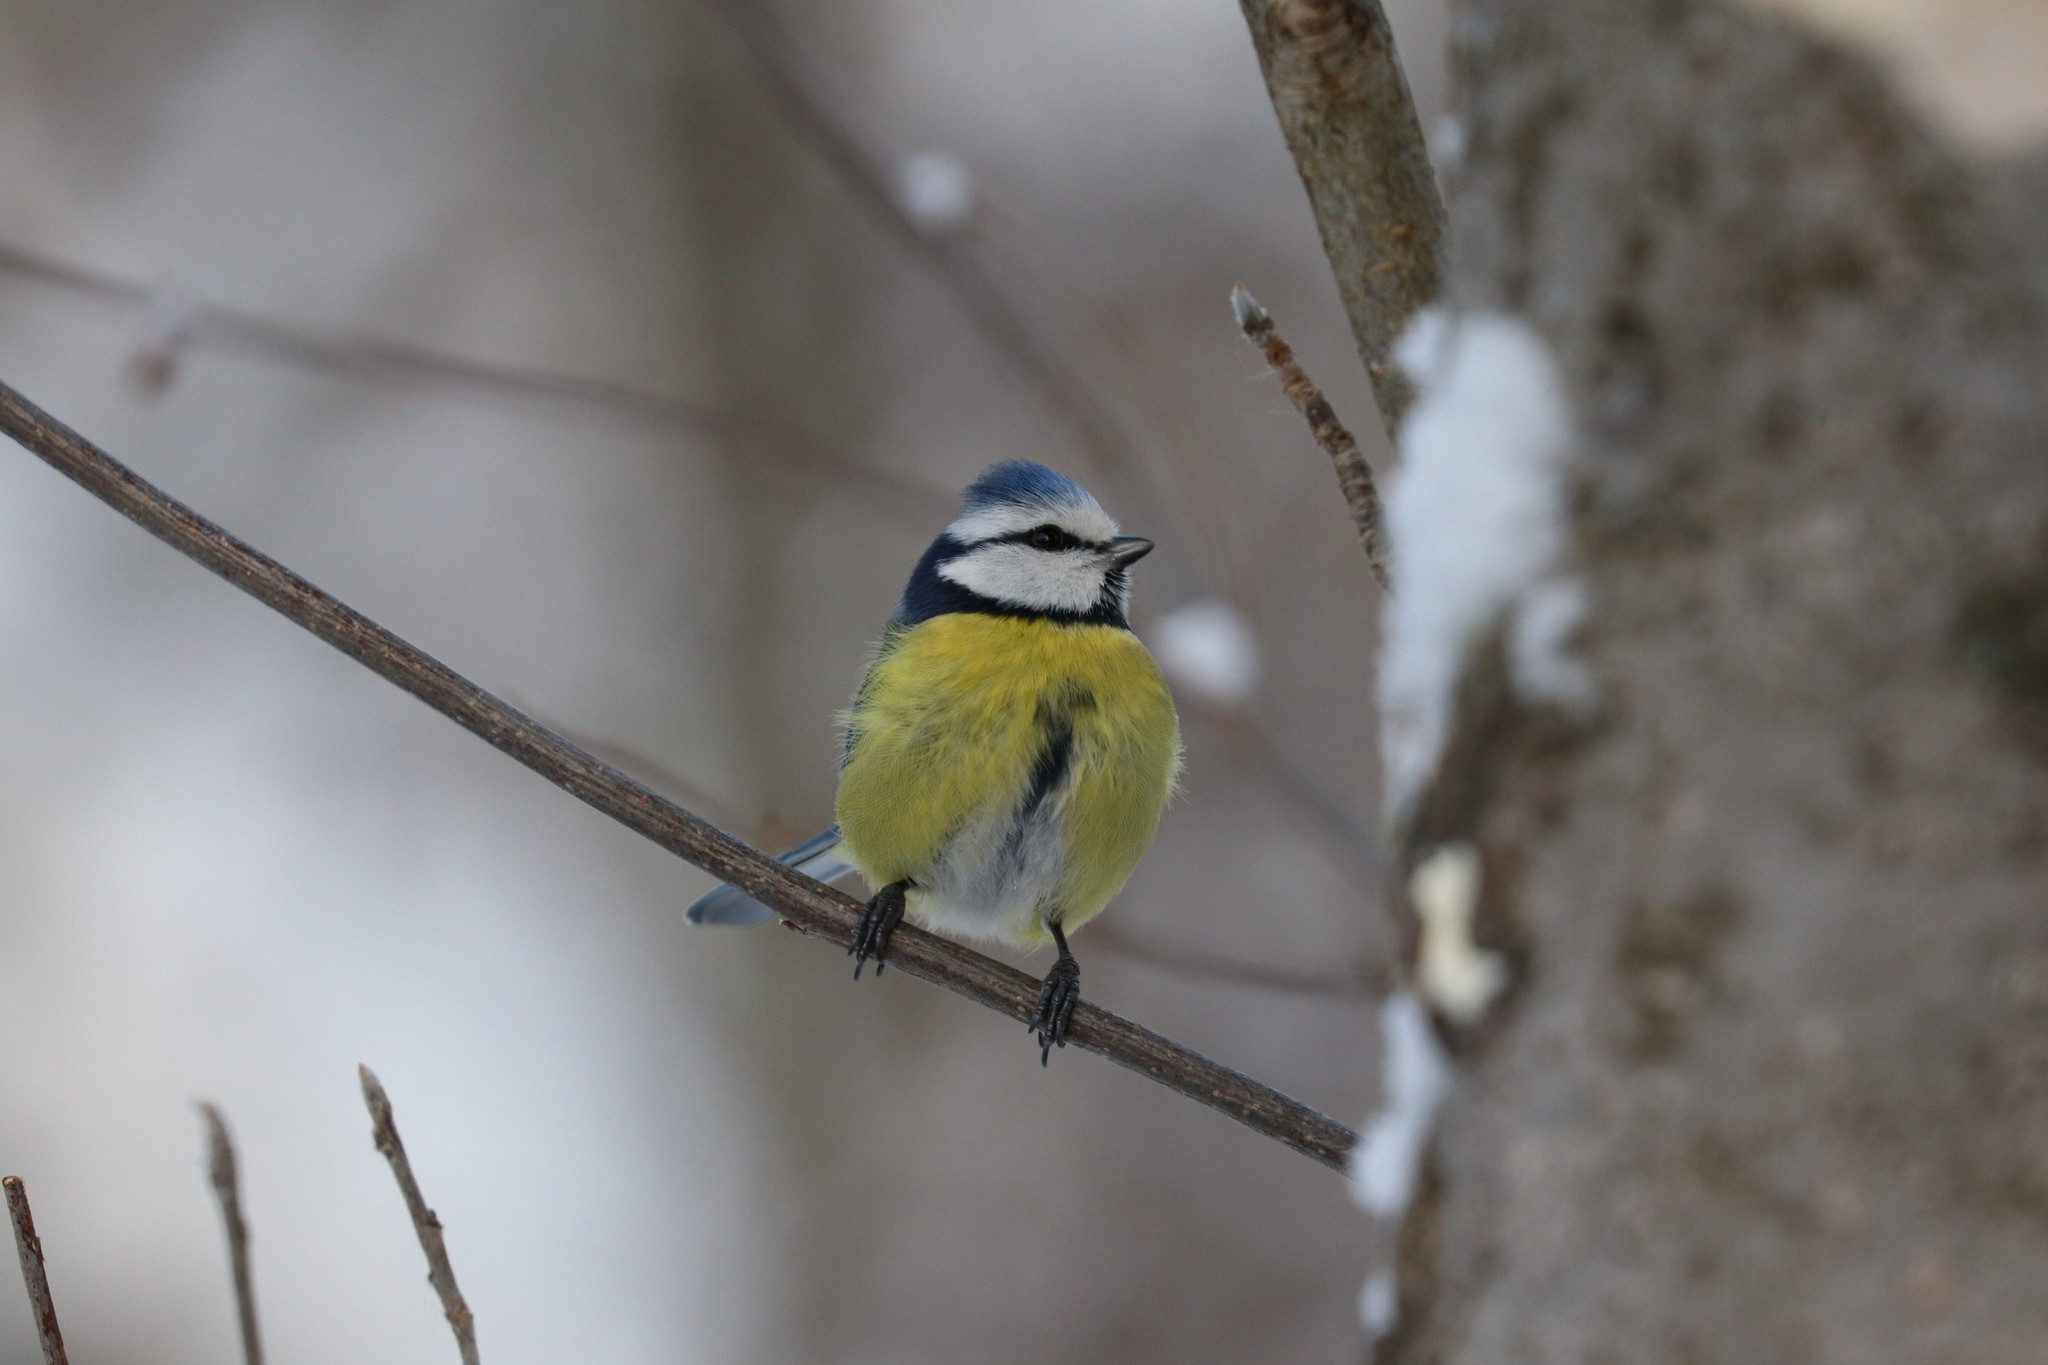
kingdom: Animalia
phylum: Chordata
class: Aves
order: Passeriformes
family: Paridae
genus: Cyanistes
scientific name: Cyanistes caeruleus
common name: Eurasian blue tit
